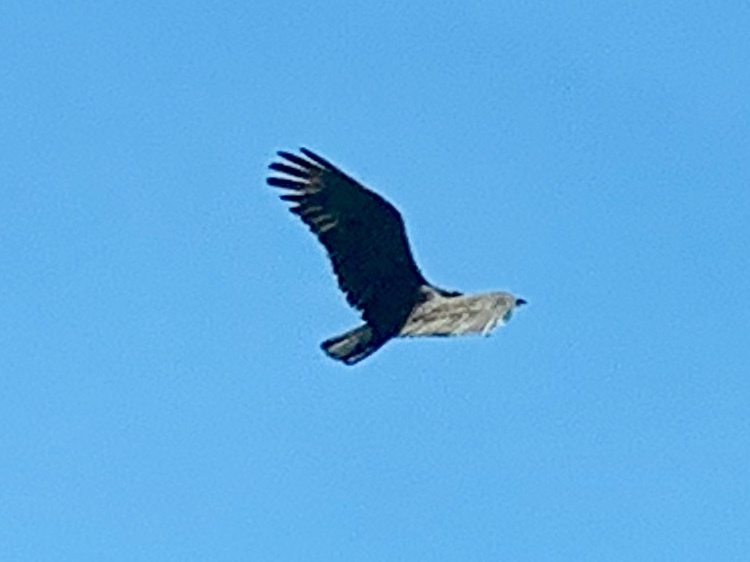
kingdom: Animalia
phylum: Chordata
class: Aves
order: Accipitriformes
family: Cathartidae
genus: Cathartes
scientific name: Cathartes aura
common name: Turkey vulture
